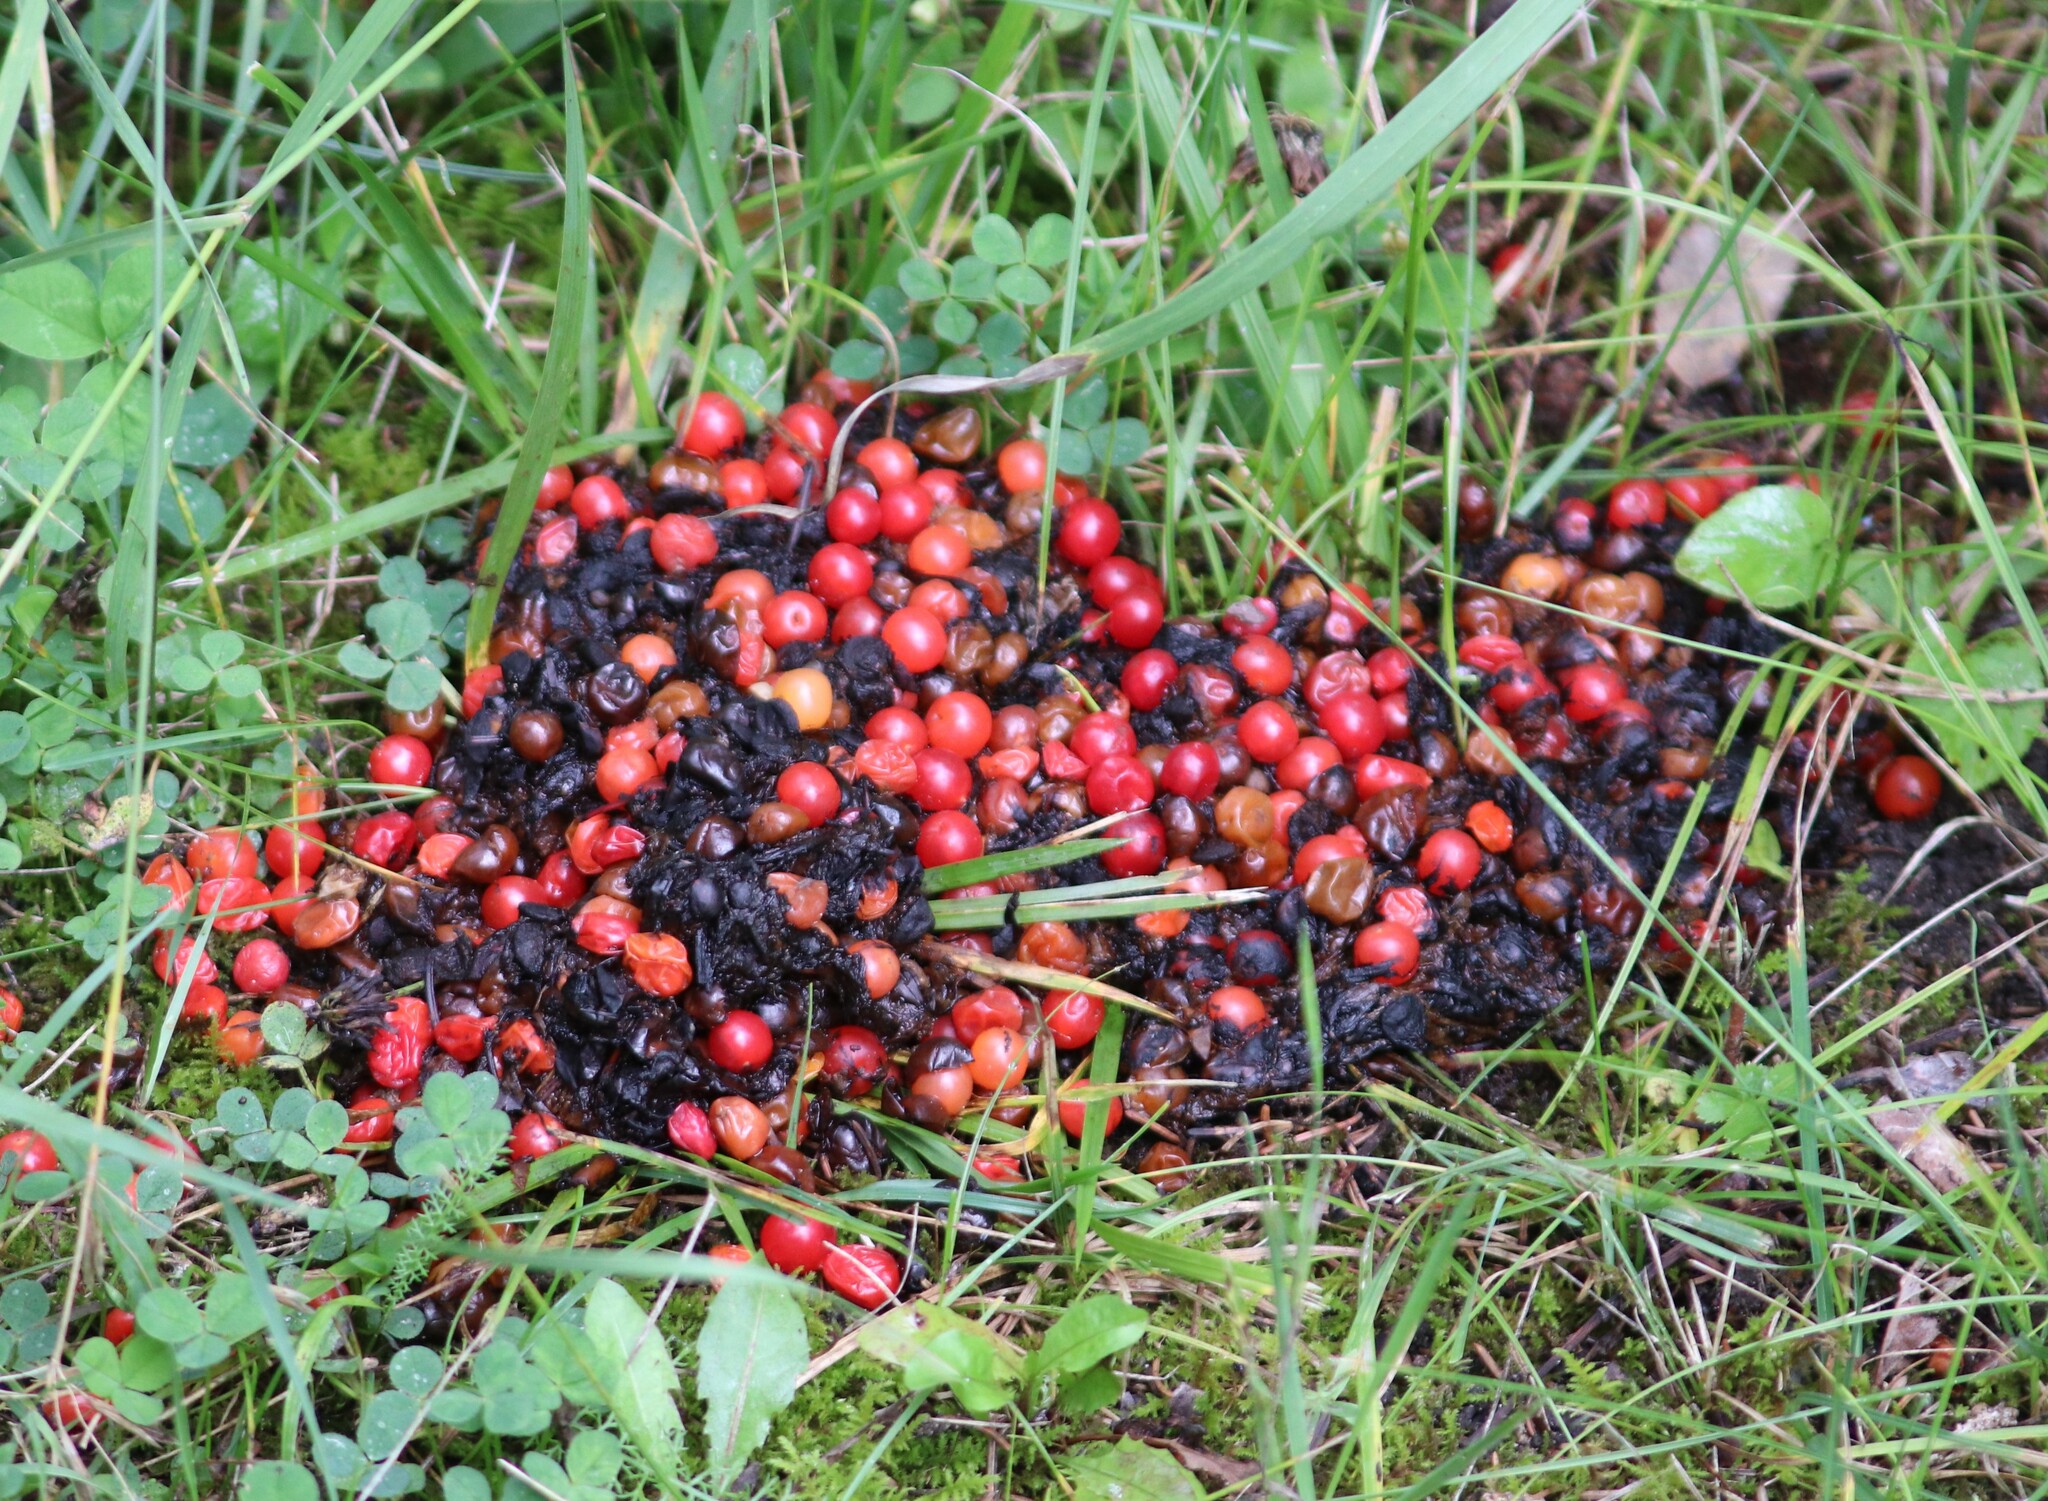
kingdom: Animalia
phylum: Chordata
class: Mammalia
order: Carnivora
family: Ursidae
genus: Ursus
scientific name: Ursus americanus
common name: American black bear
